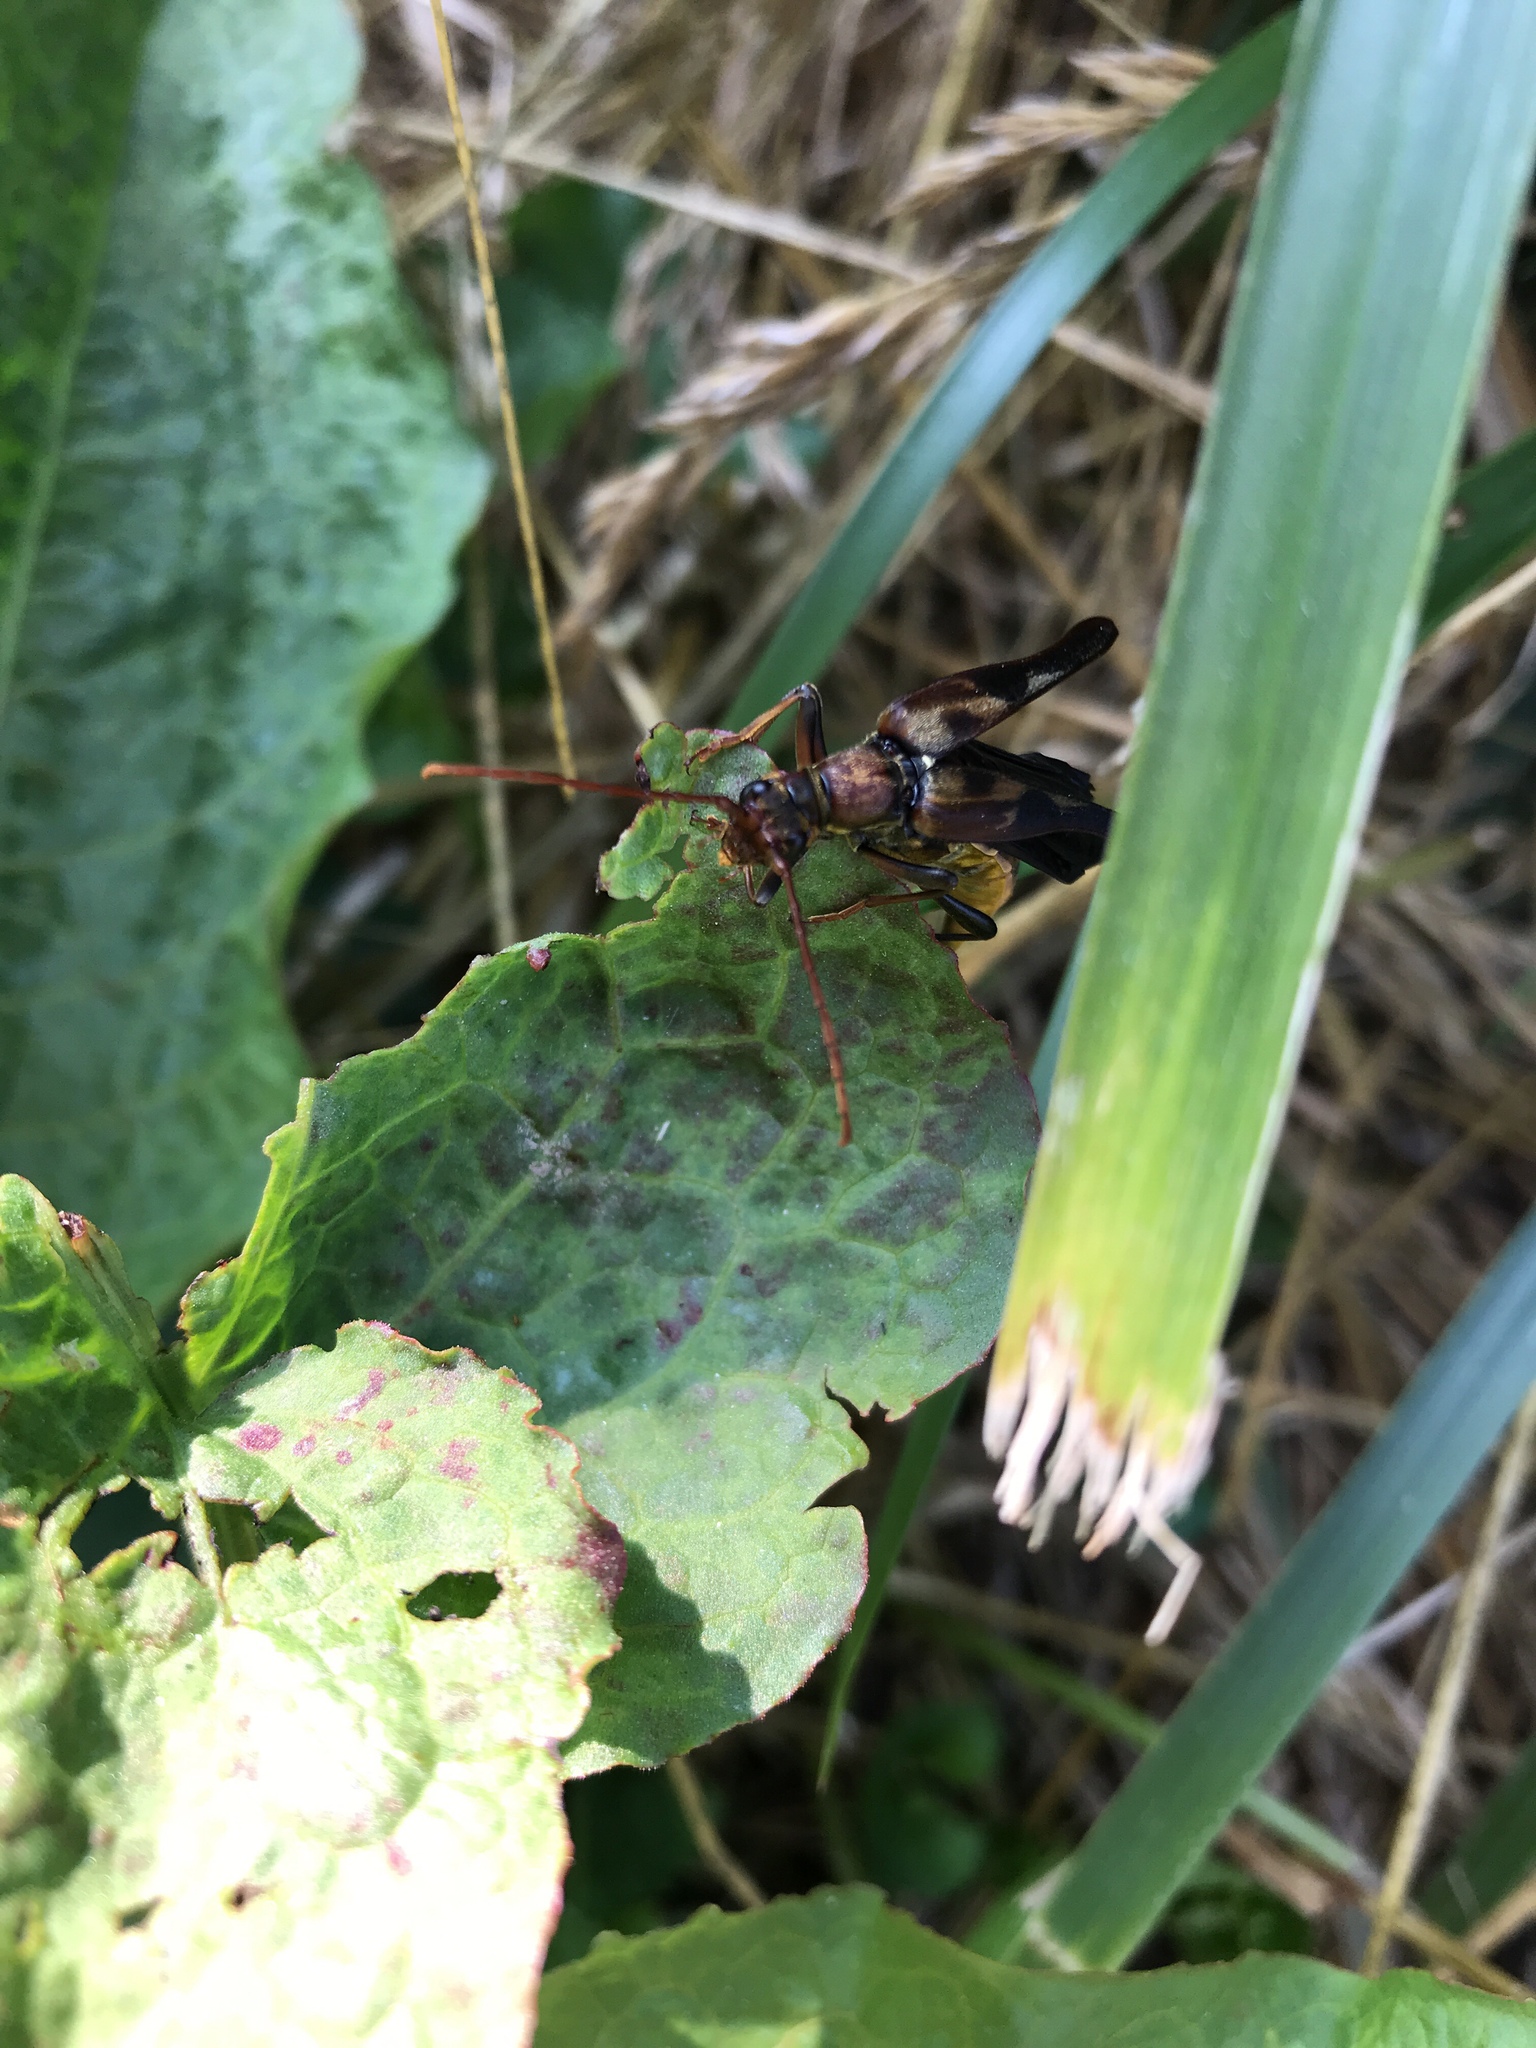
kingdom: Animalia
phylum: Arthropoda
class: Insecta
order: Coleoptera
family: Cerambycidae
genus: Bellamira
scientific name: Bellamira scalaris
